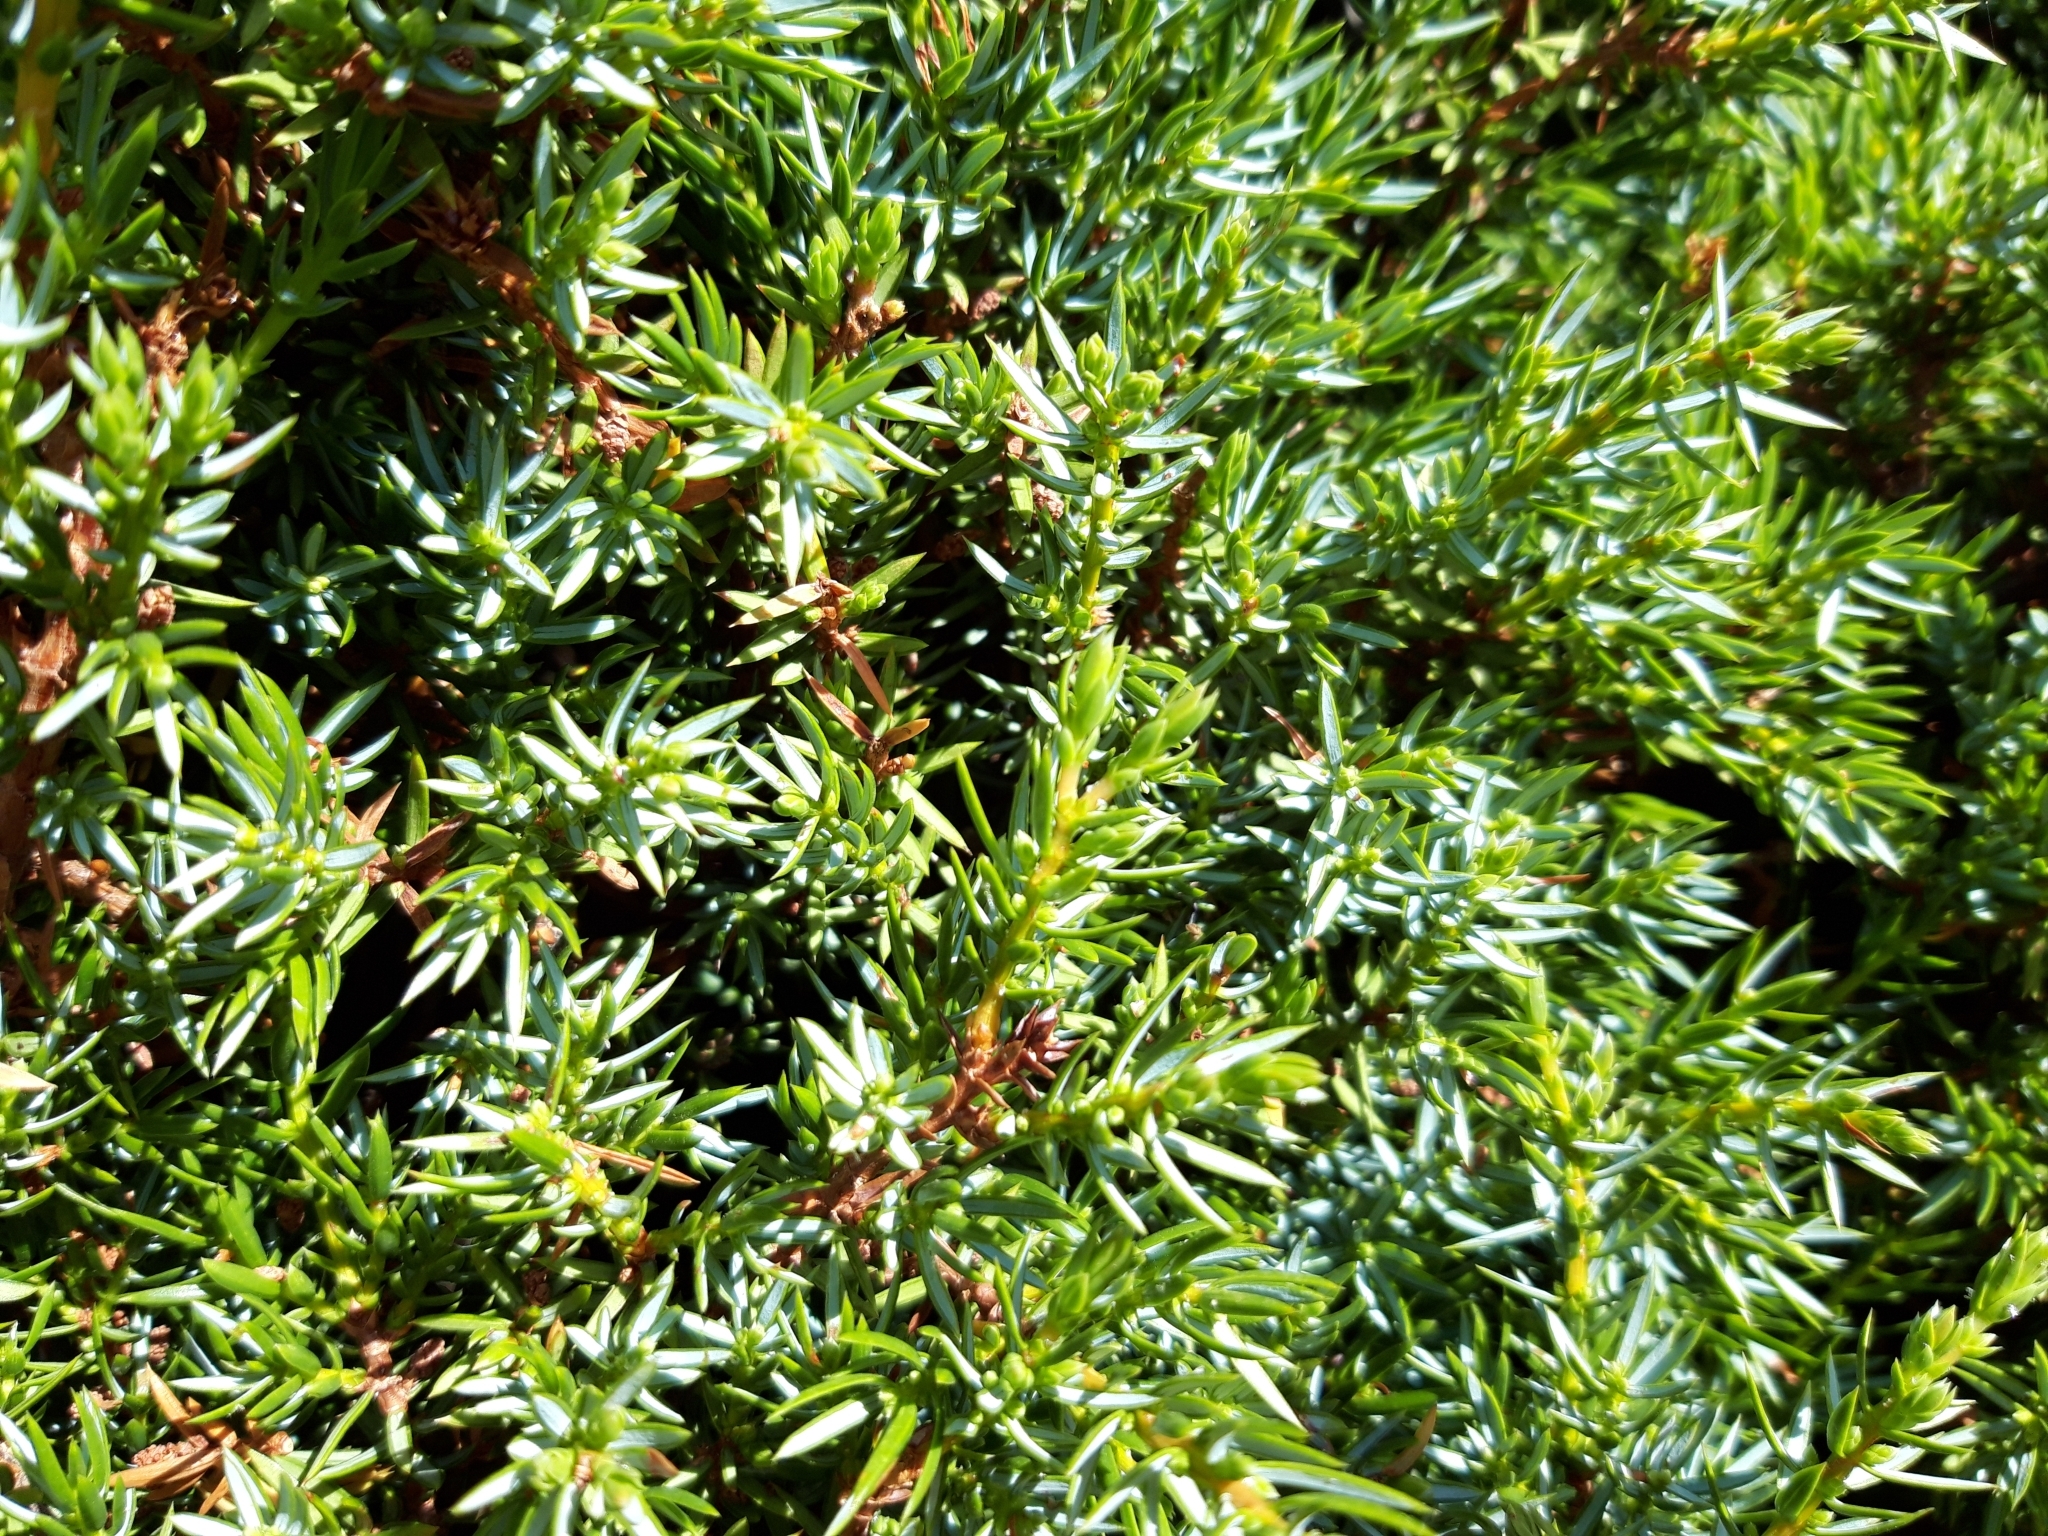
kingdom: Plantae
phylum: Tracheophyta
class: Pinopsida
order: Pinales
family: Cupressaceae
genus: Juniperus
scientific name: Juniperus communis
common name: Common juniper
